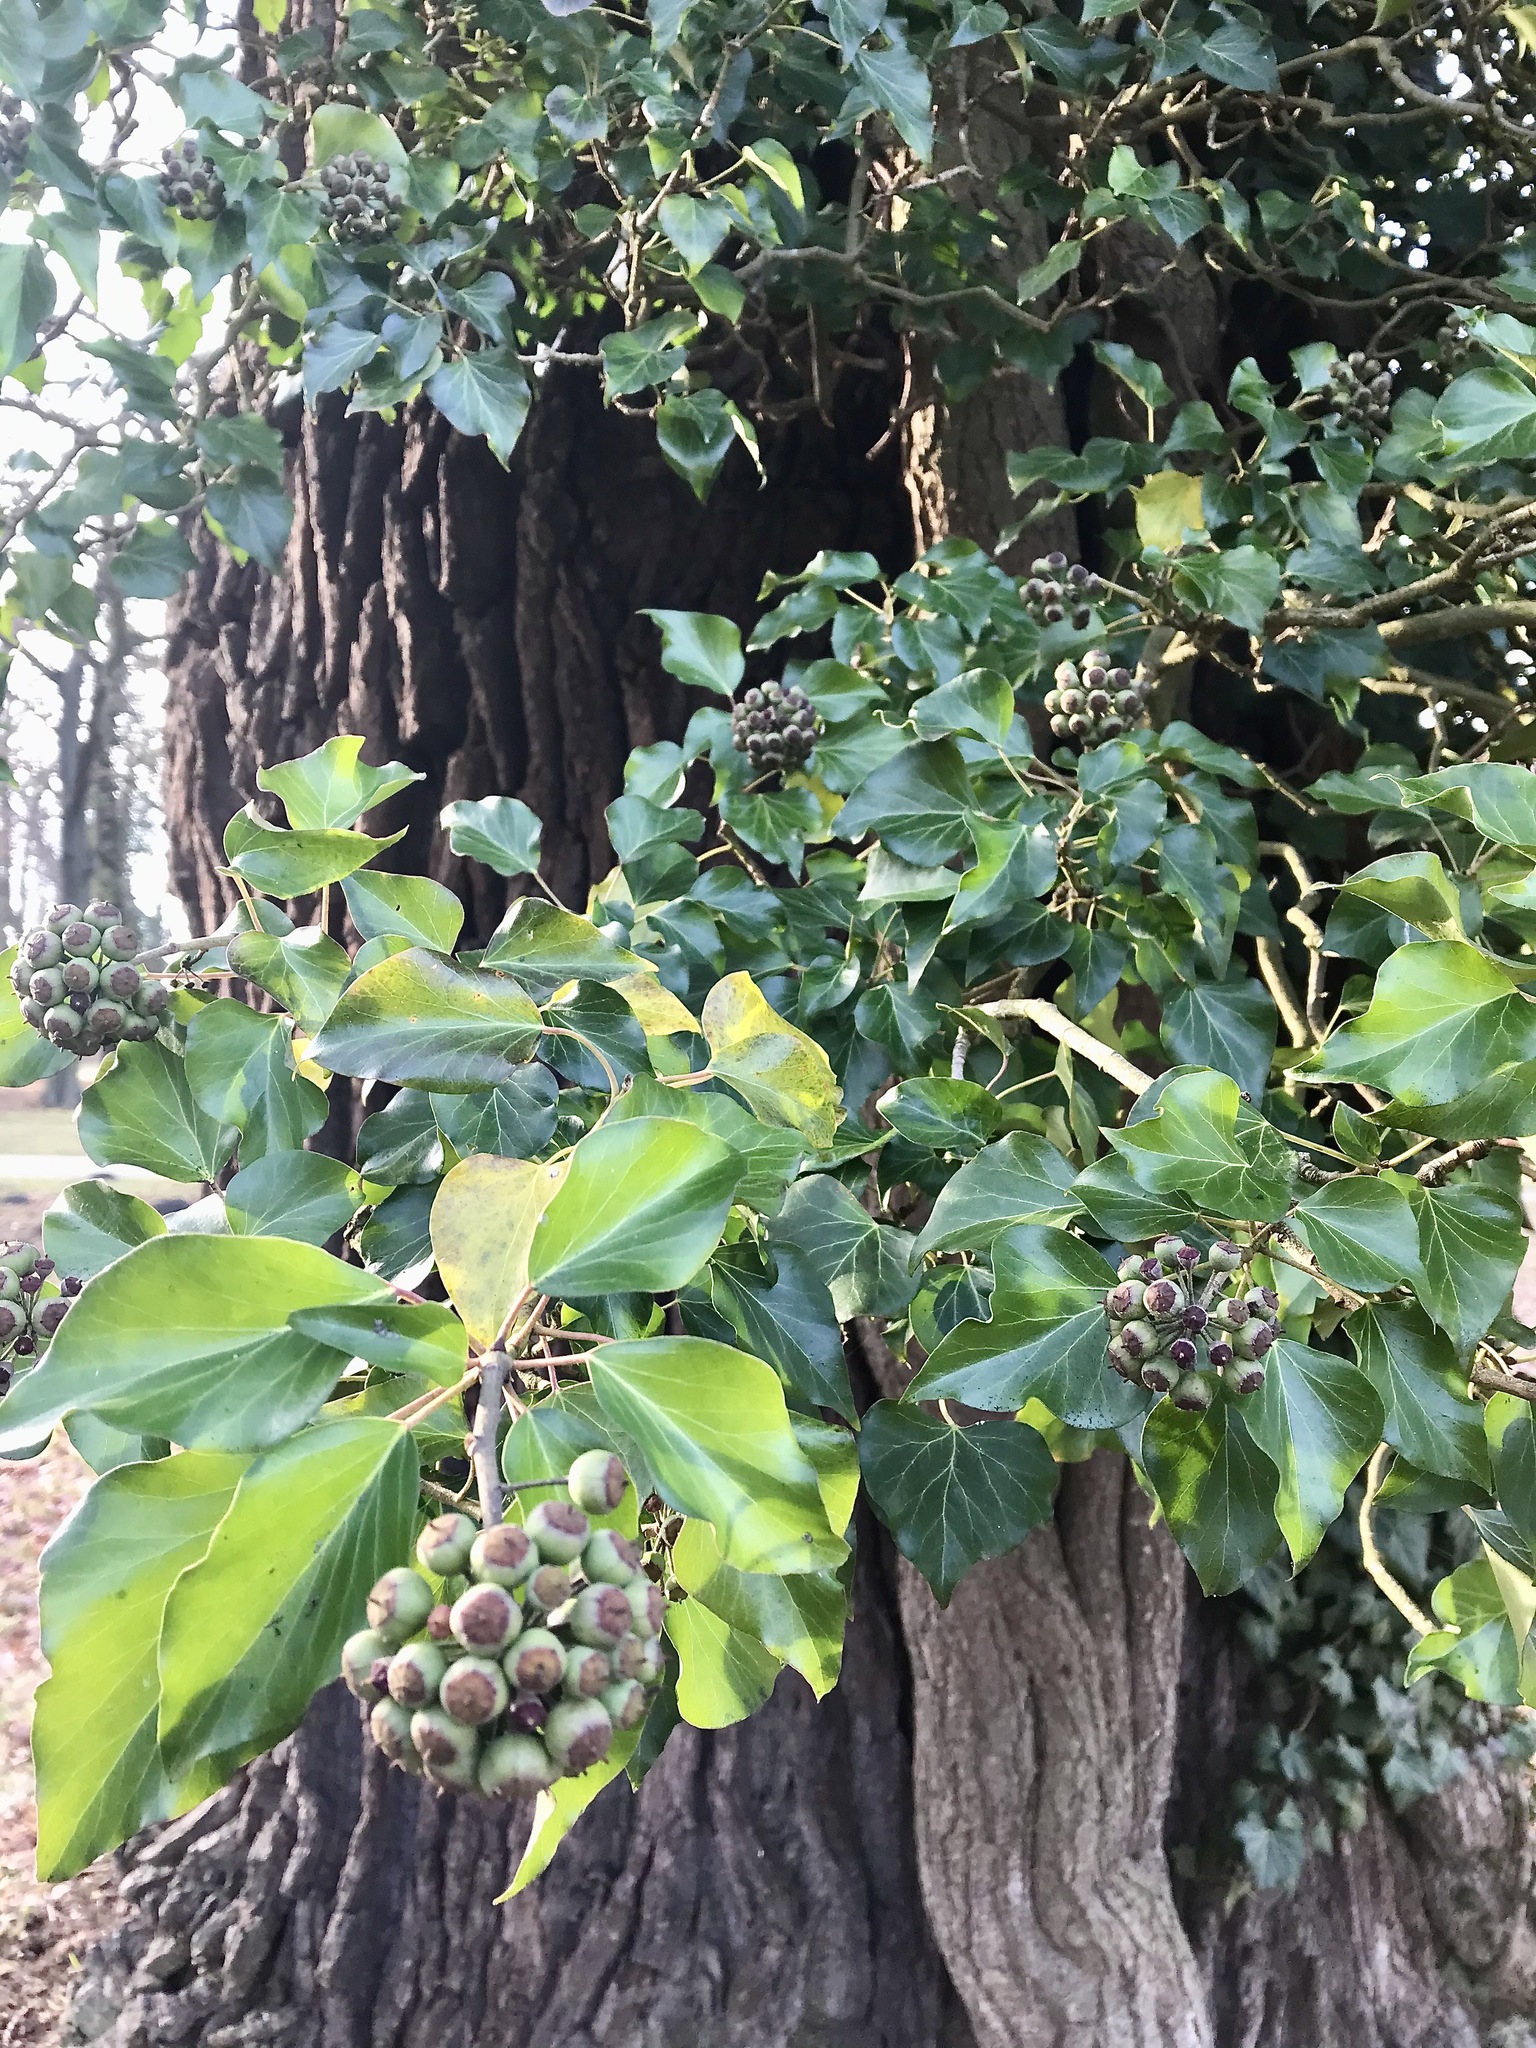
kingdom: Plantae
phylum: Tracheophyta
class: Magnoliopsida
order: Apiales
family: Araliaceae
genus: Hedera
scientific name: Hedera helix
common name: Ivy
